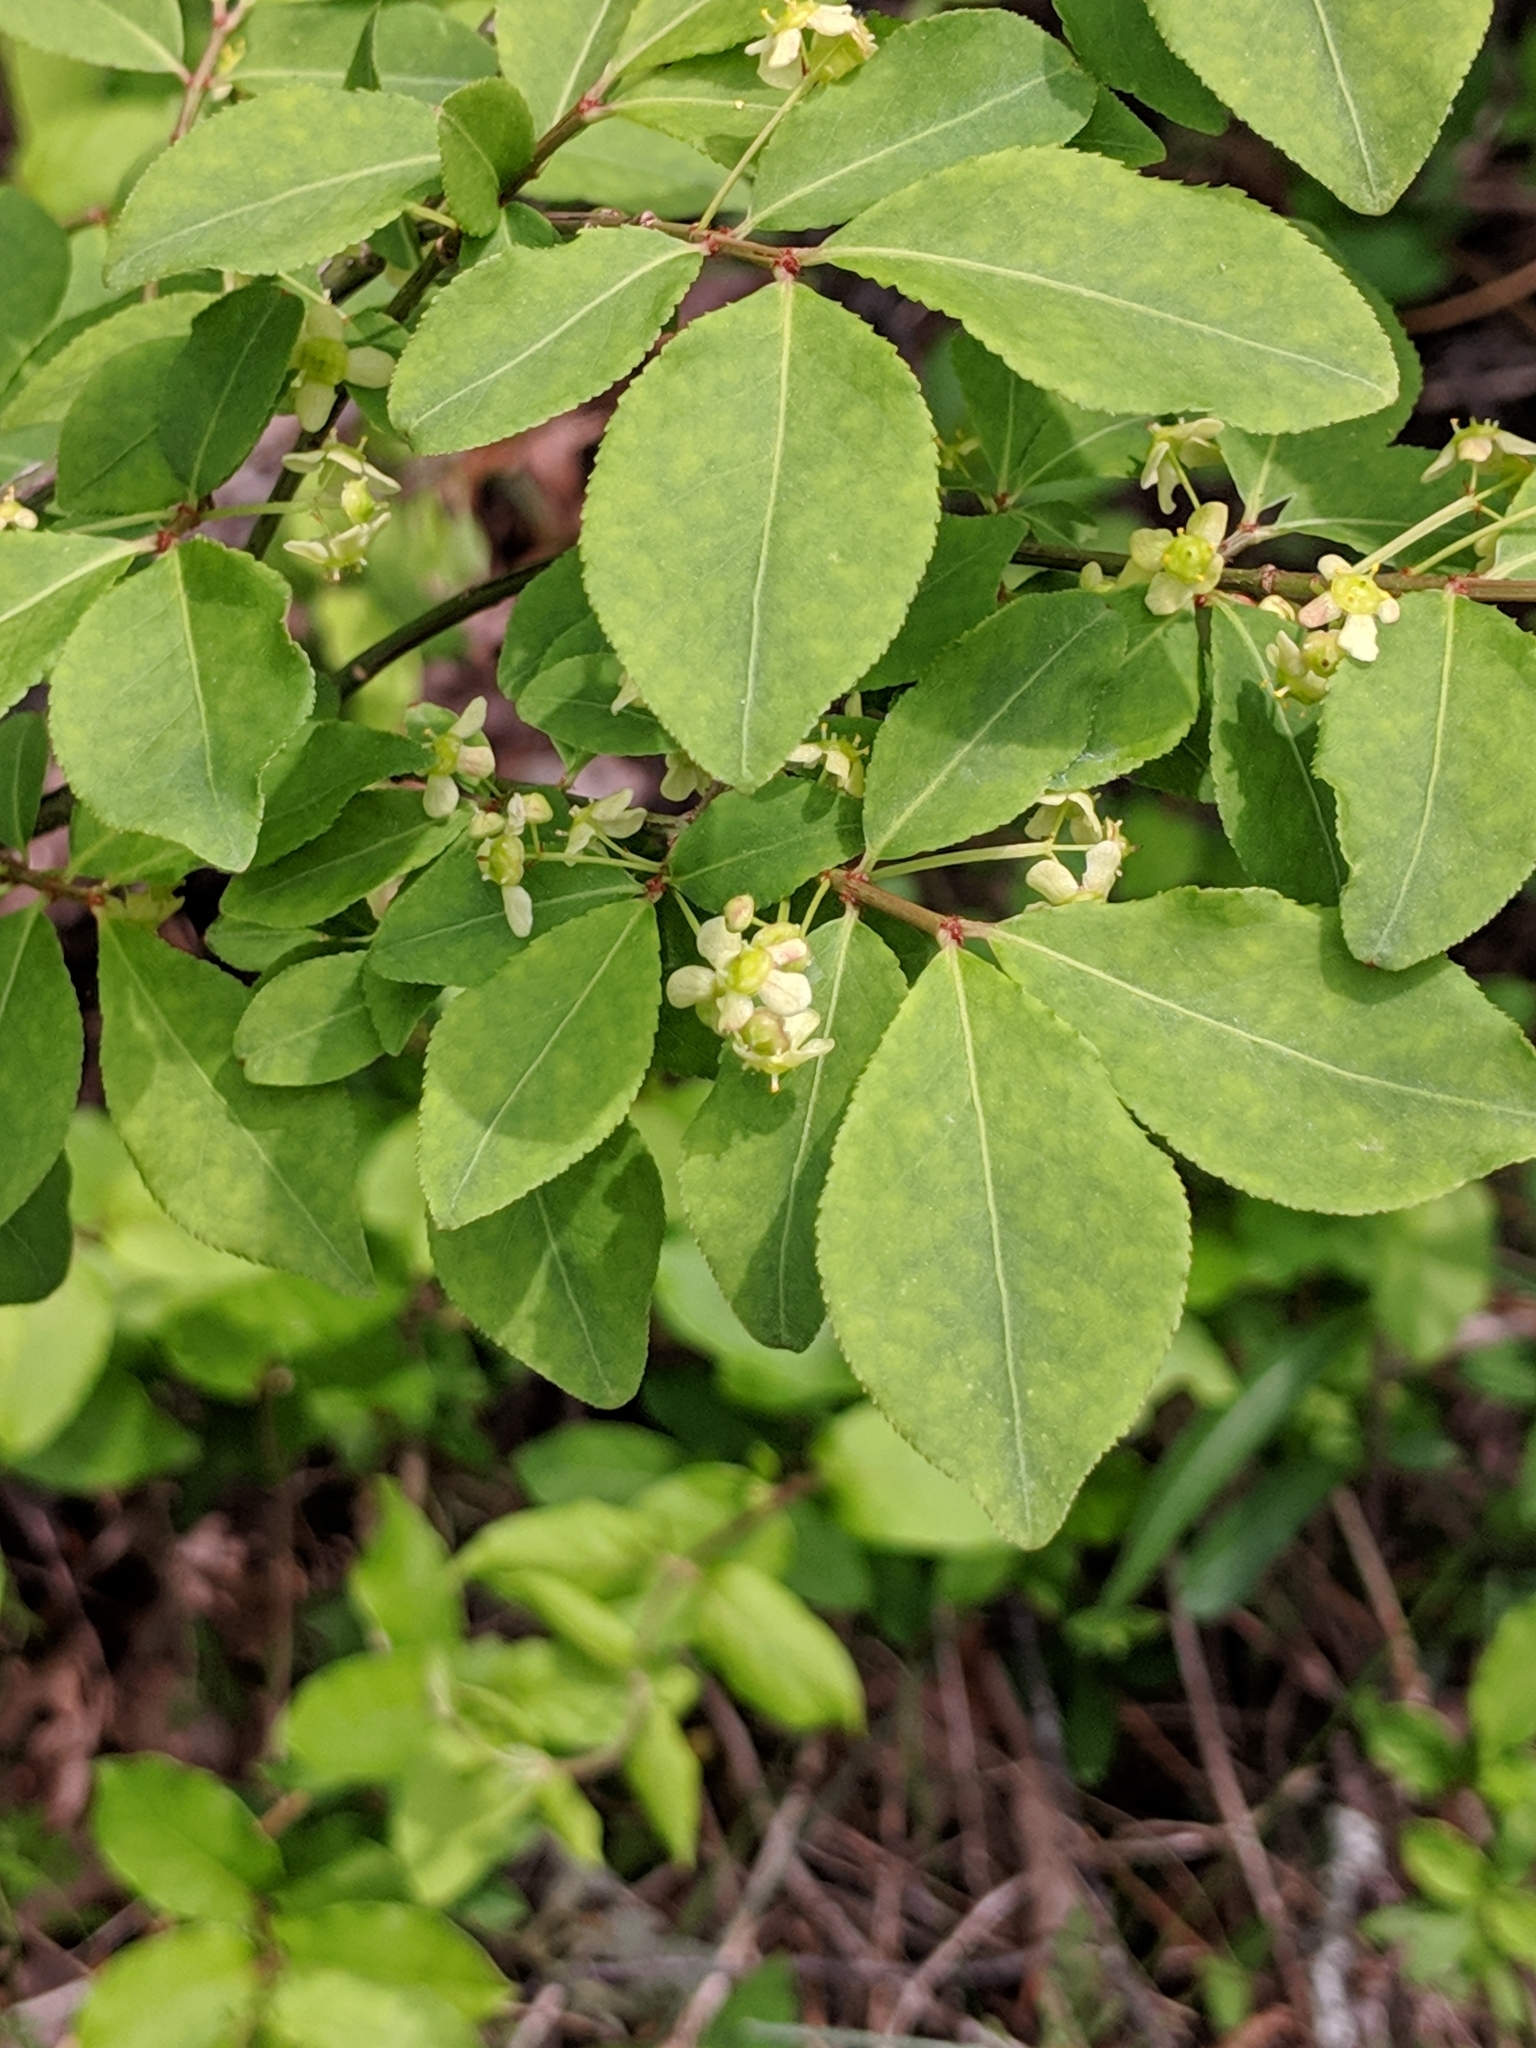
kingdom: Plantae
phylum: Tracheophyta
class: Magnoliopsida
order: Celastrales
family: Celastraceae
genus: Euonymus
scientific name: Euonymus alatus
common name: Winged euonymus
